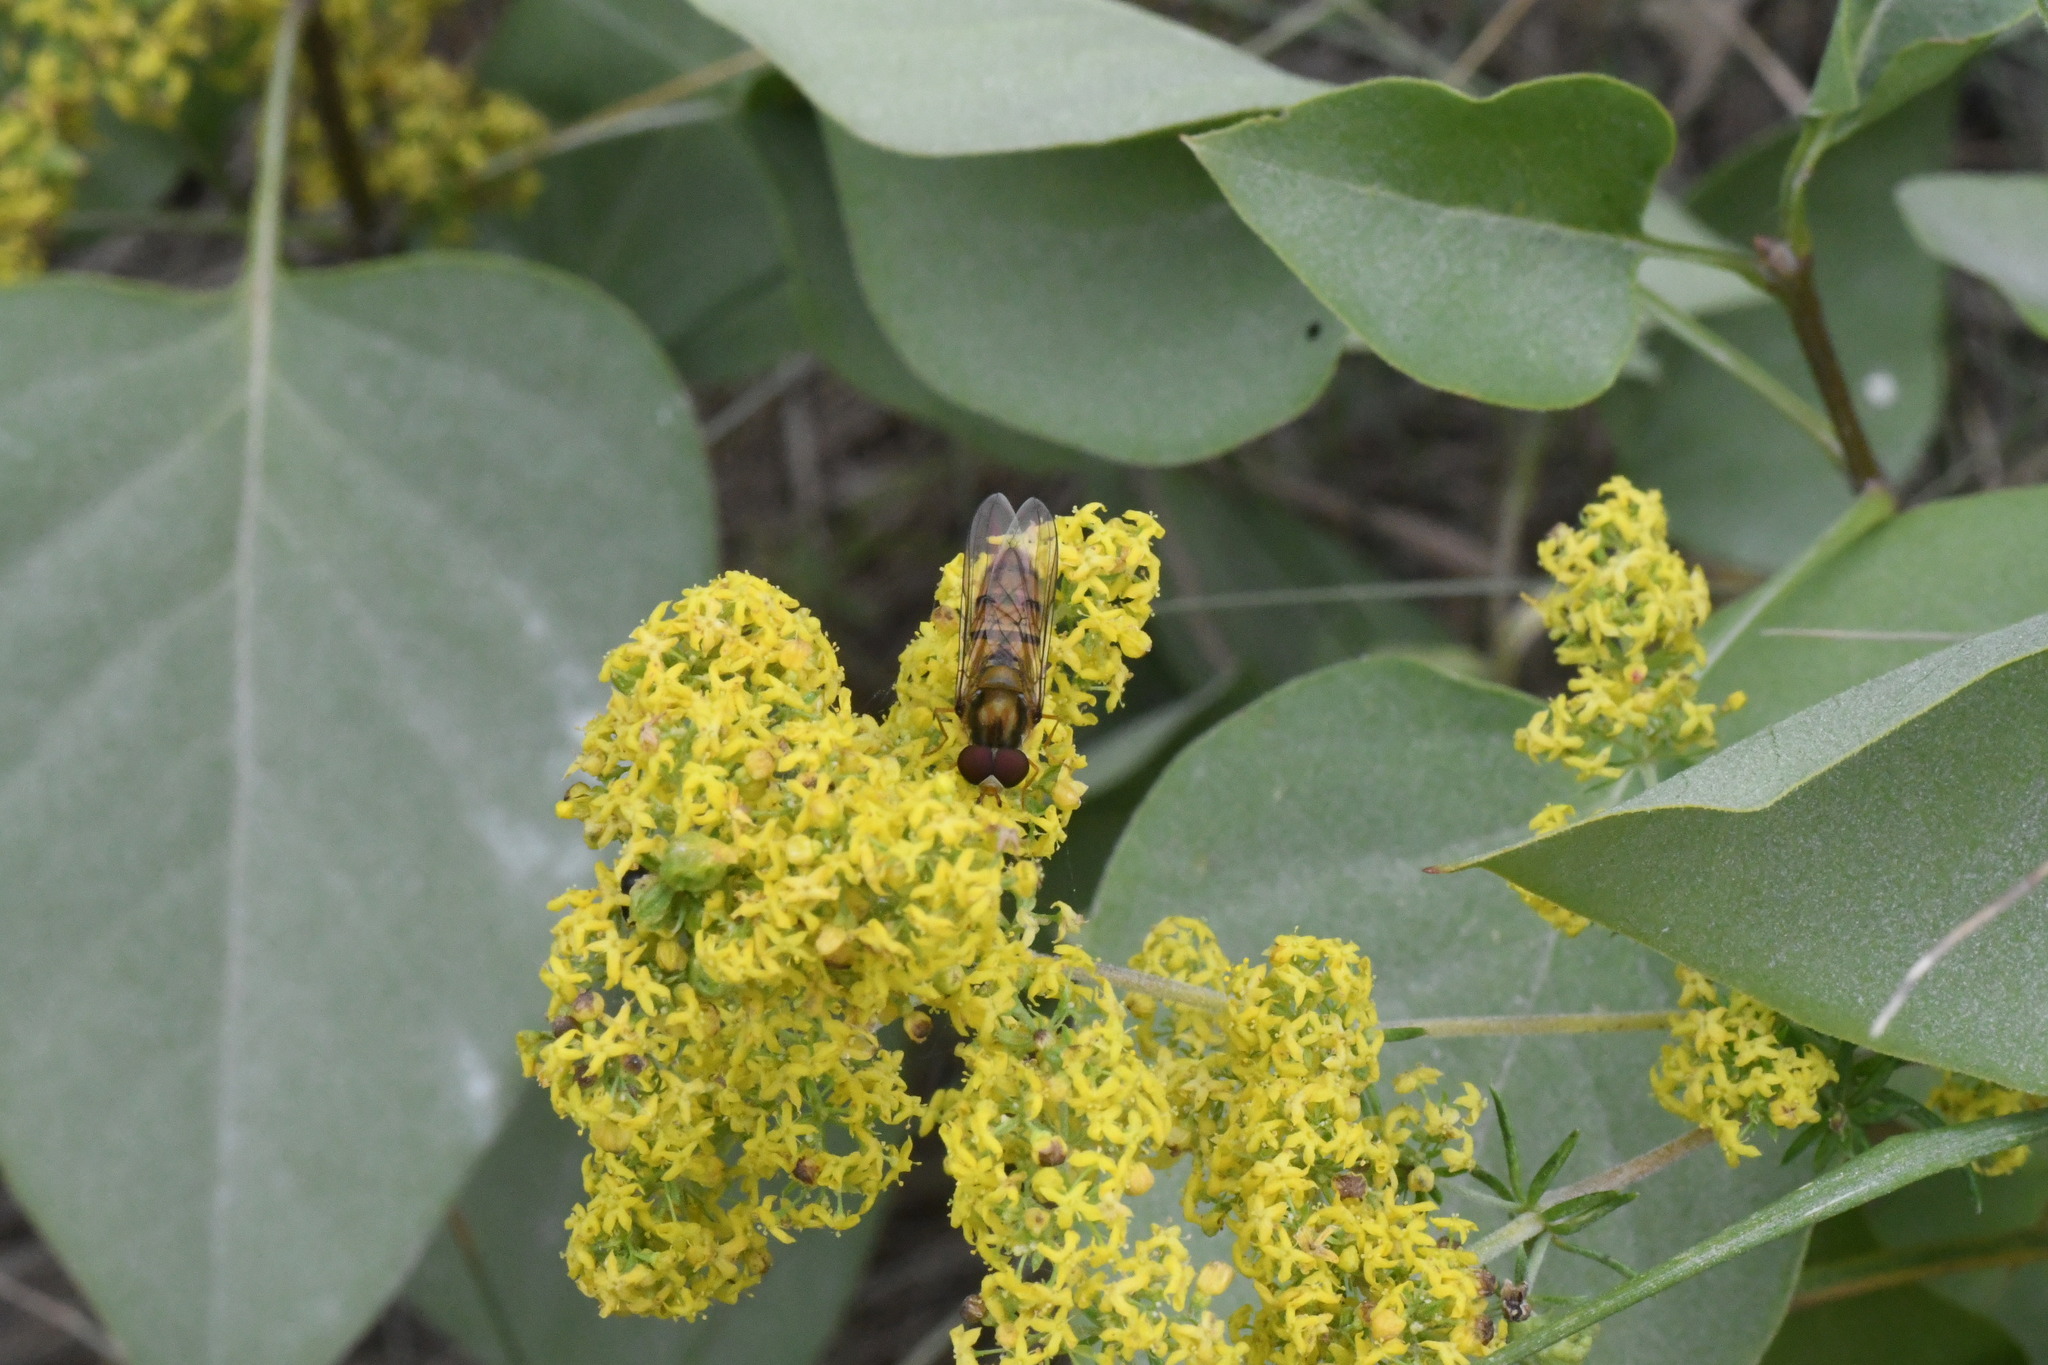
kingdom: Animalia
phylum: Arthropoda
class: Insecta
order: Diptera
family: Syrphidae
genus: Episyrphus
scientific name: Episyrphus balteatus
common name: Marmalade hoverfly
